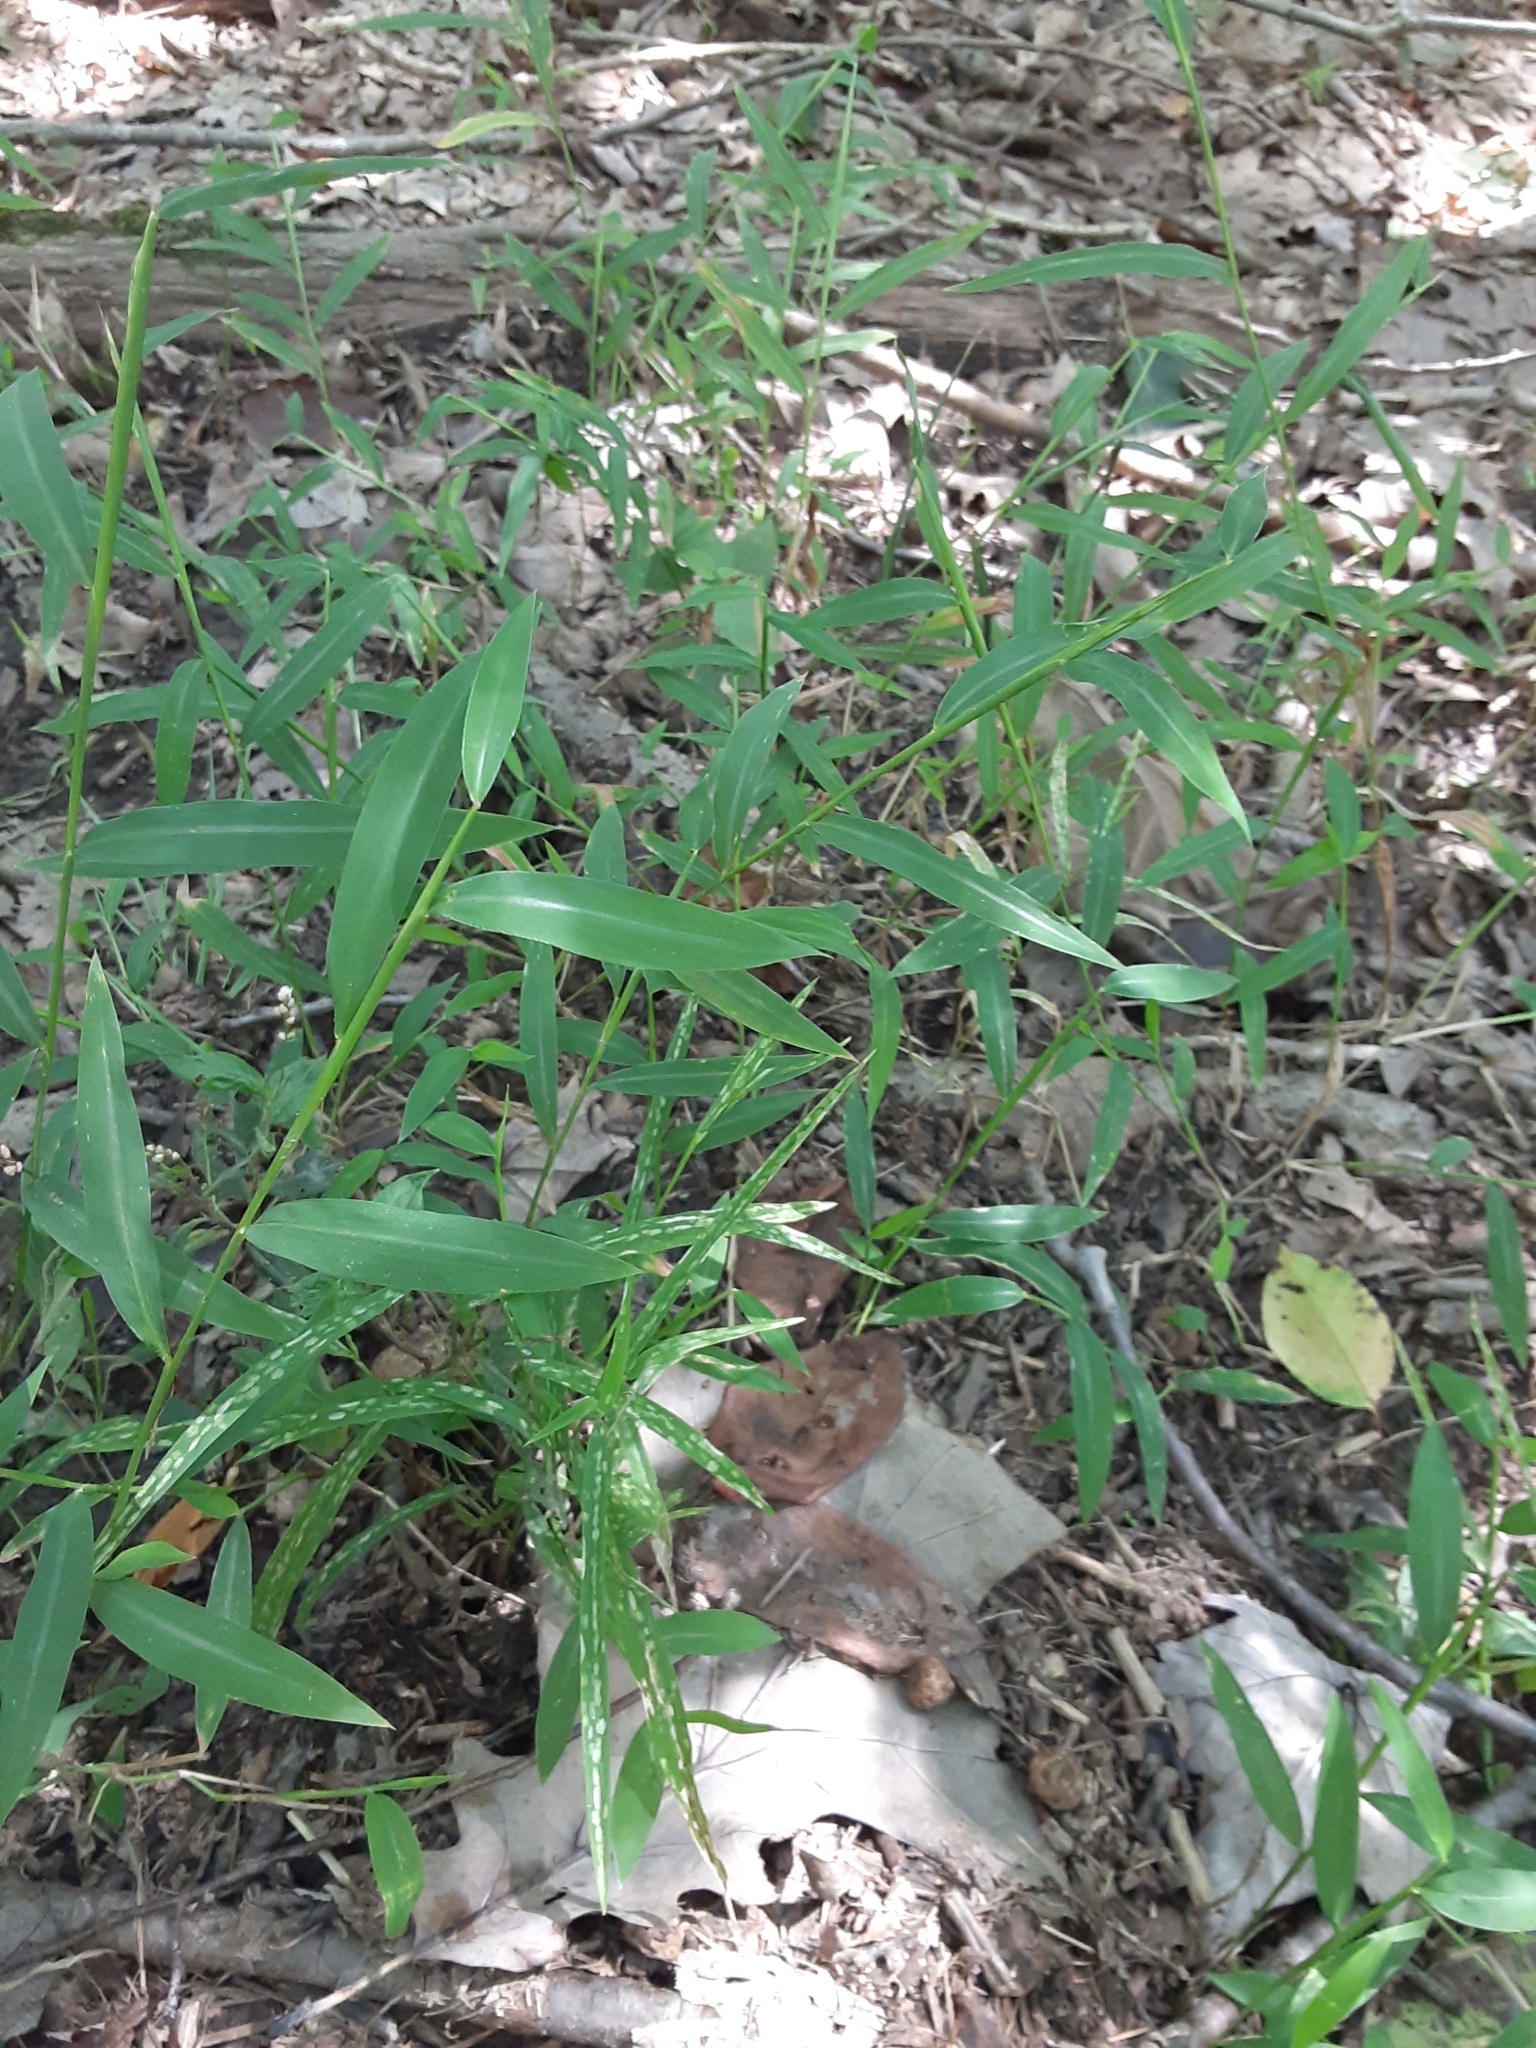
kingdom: Plantae
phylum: Tracheophyta
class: Liliopsida
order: Poales
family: Poaceae
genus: Microstegium
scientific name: Microstegium vimineum
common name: Japanese stiltgrass
